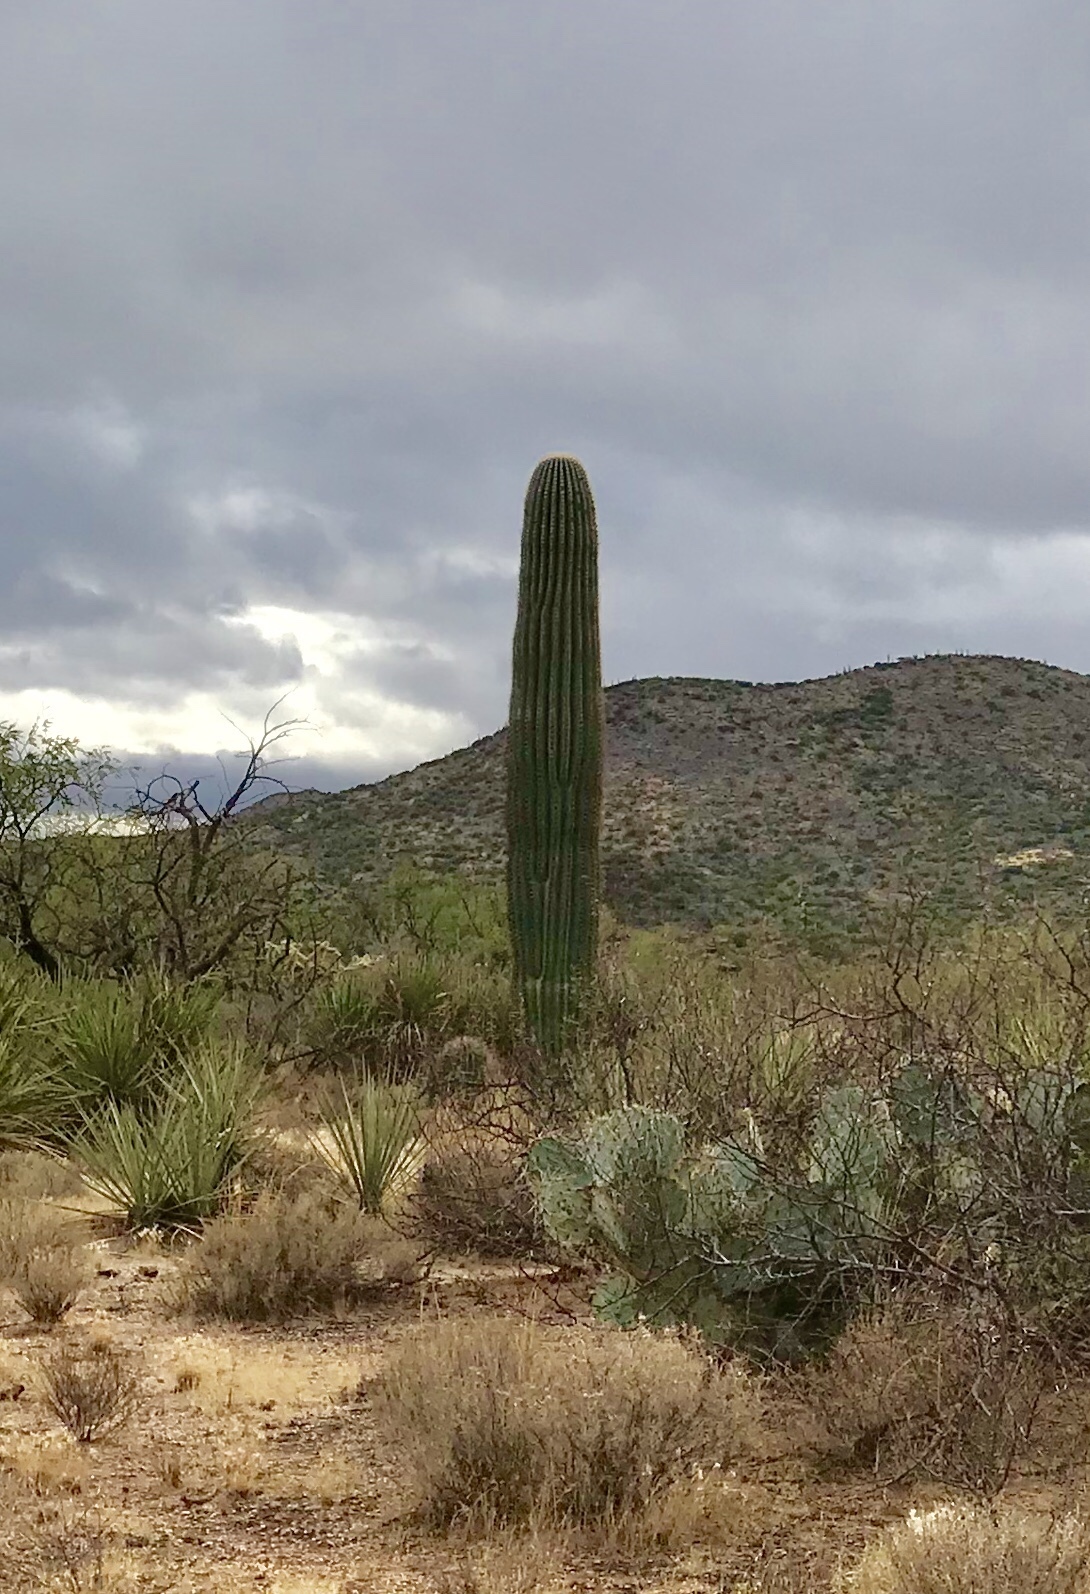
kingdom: Plantae
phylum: Tracheophyta
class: Magnoliopsida
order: Caryophyllales
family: Cactaceae
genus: Carnegiea
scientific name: Carnegiea gigantea
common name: Saguaro
